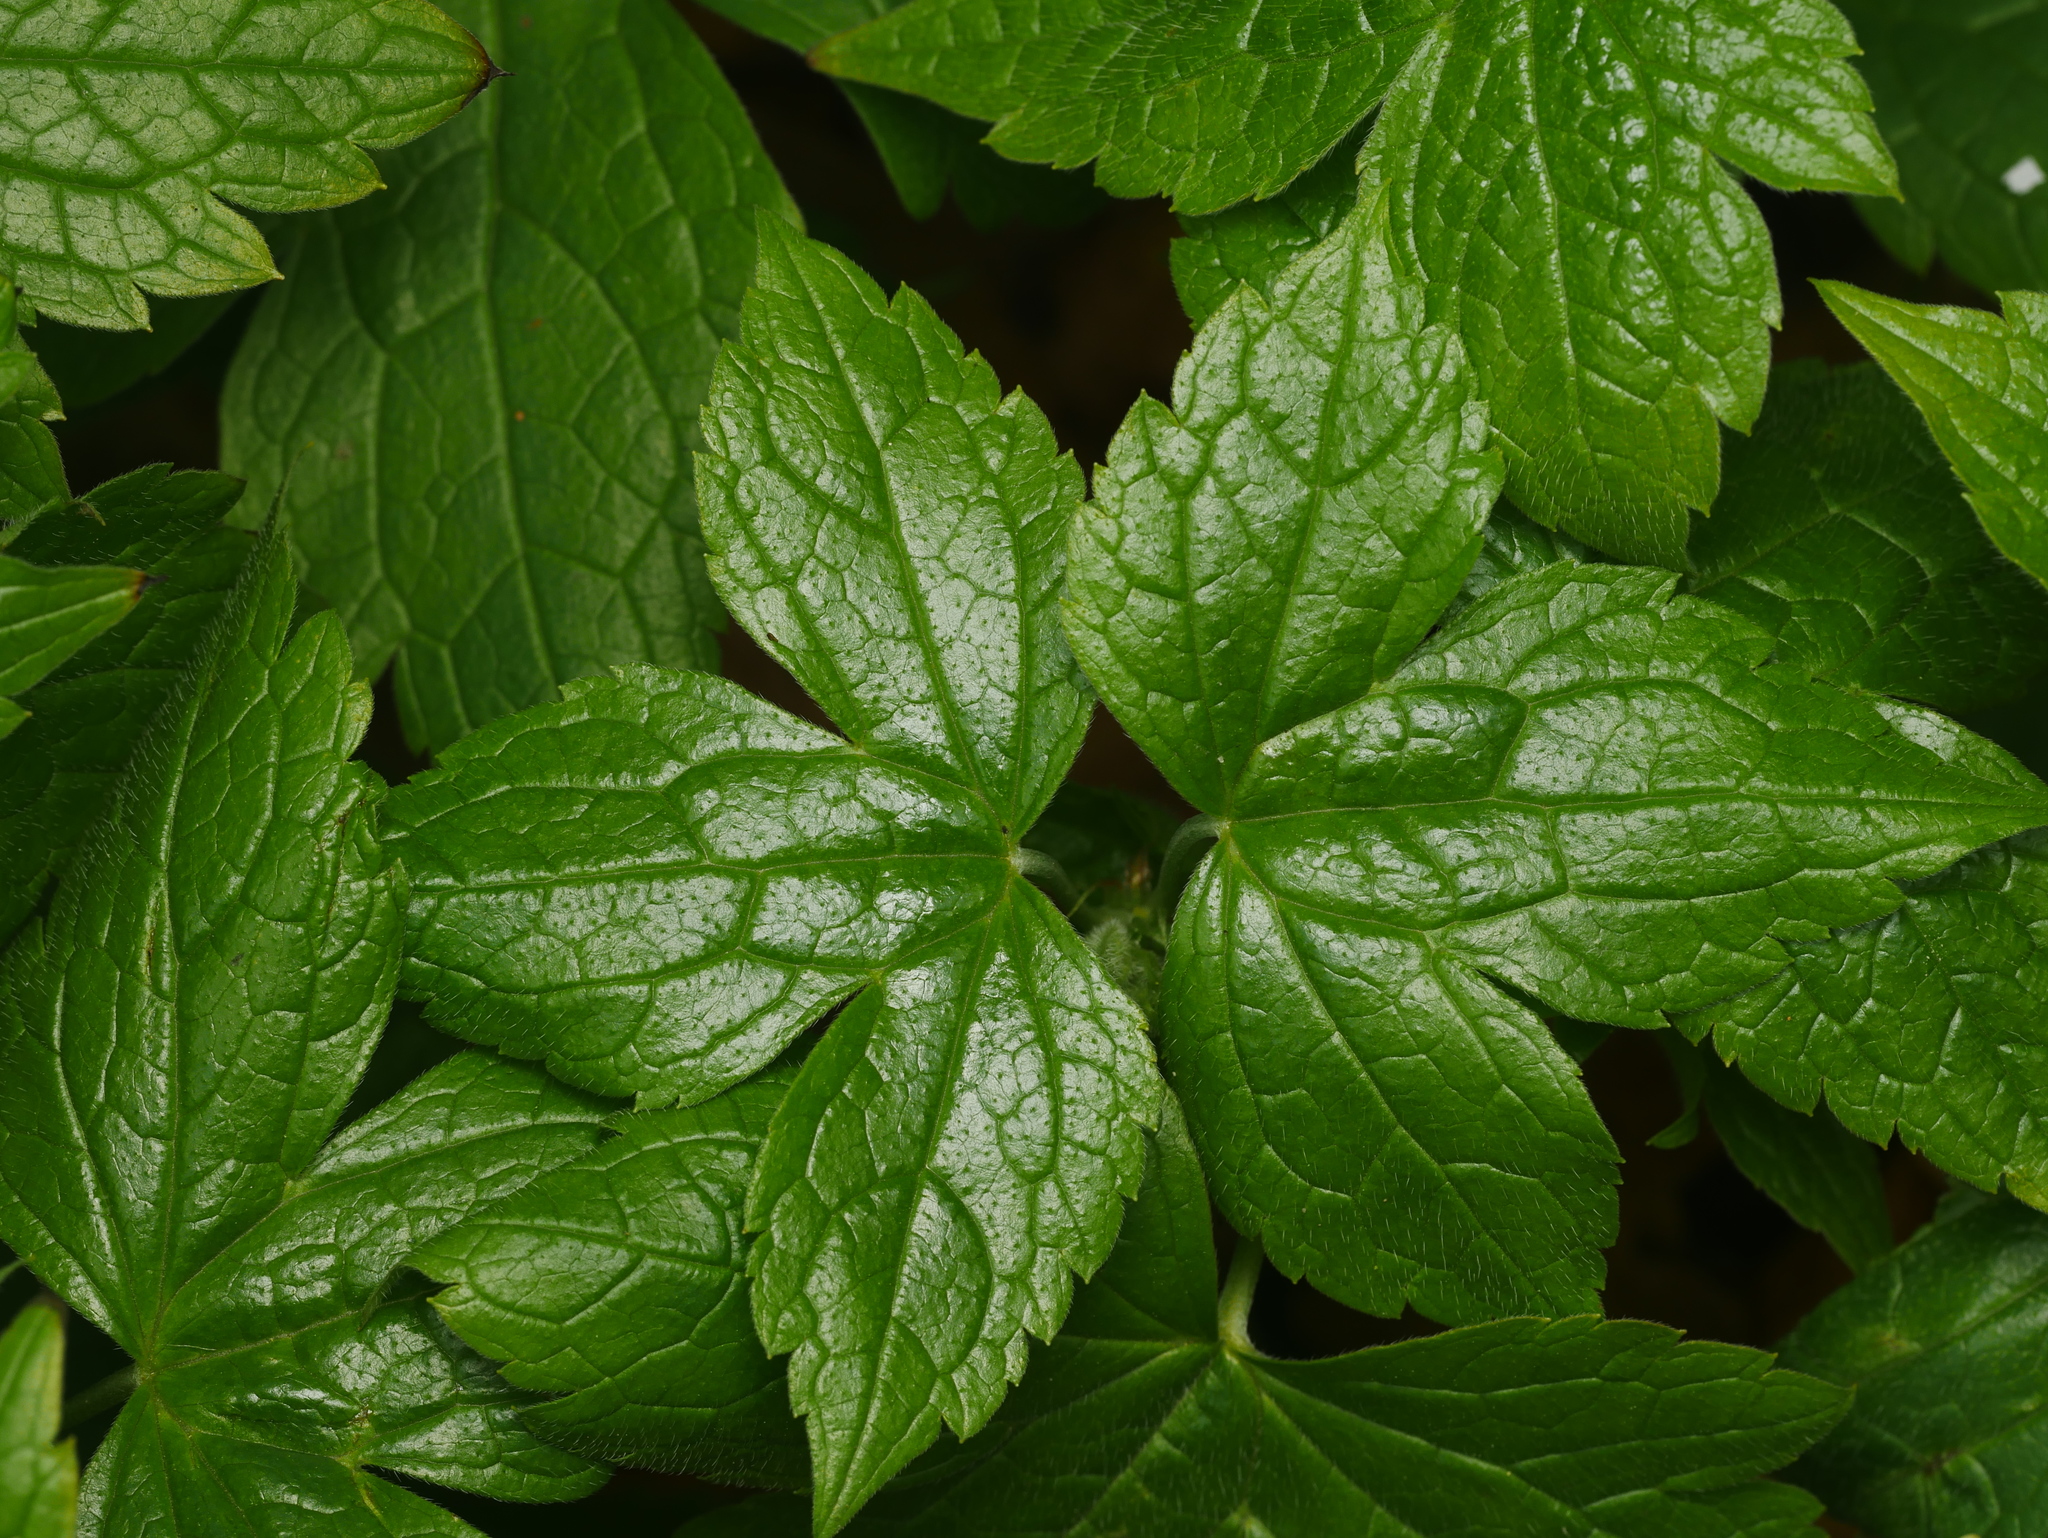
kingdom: Plantae
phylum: Tracheophyta
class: Magnoliopsida
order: Geraniales
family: Geraniaceae
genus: Geranium
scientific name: Geranium nodosum
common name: Knotted crane's-bill
